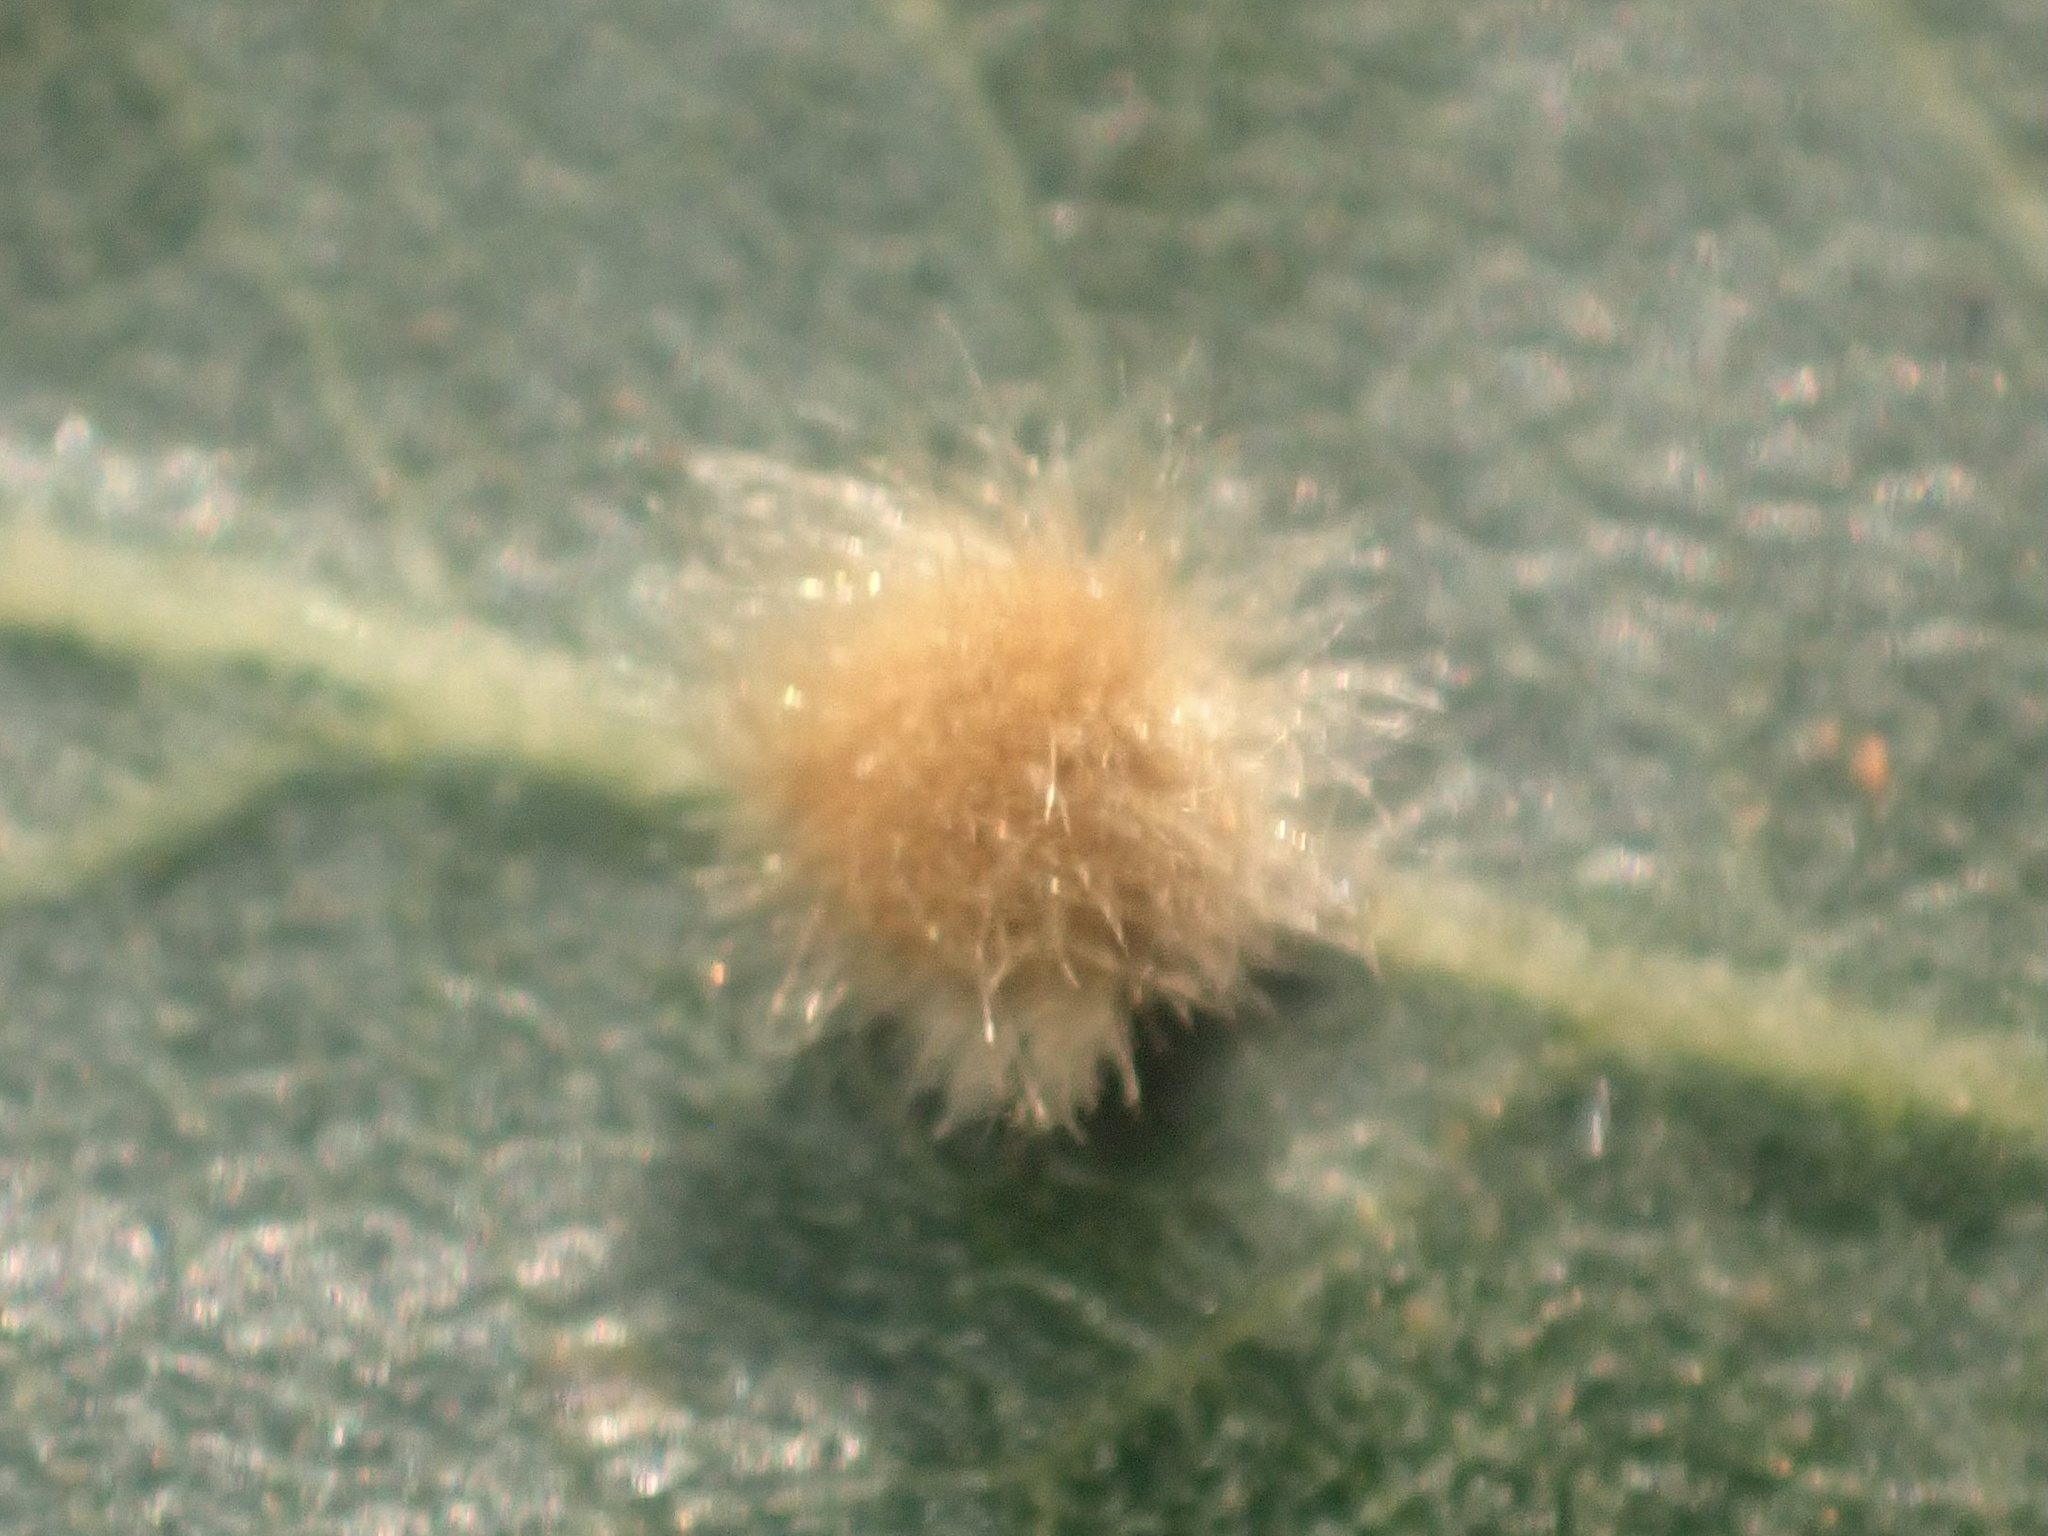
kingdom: Animalia
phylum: Arthropoda
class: Insecta
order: Hymenoptera
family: Cynipidae
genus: Andricus
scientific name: Andricus Druon fullawayi
